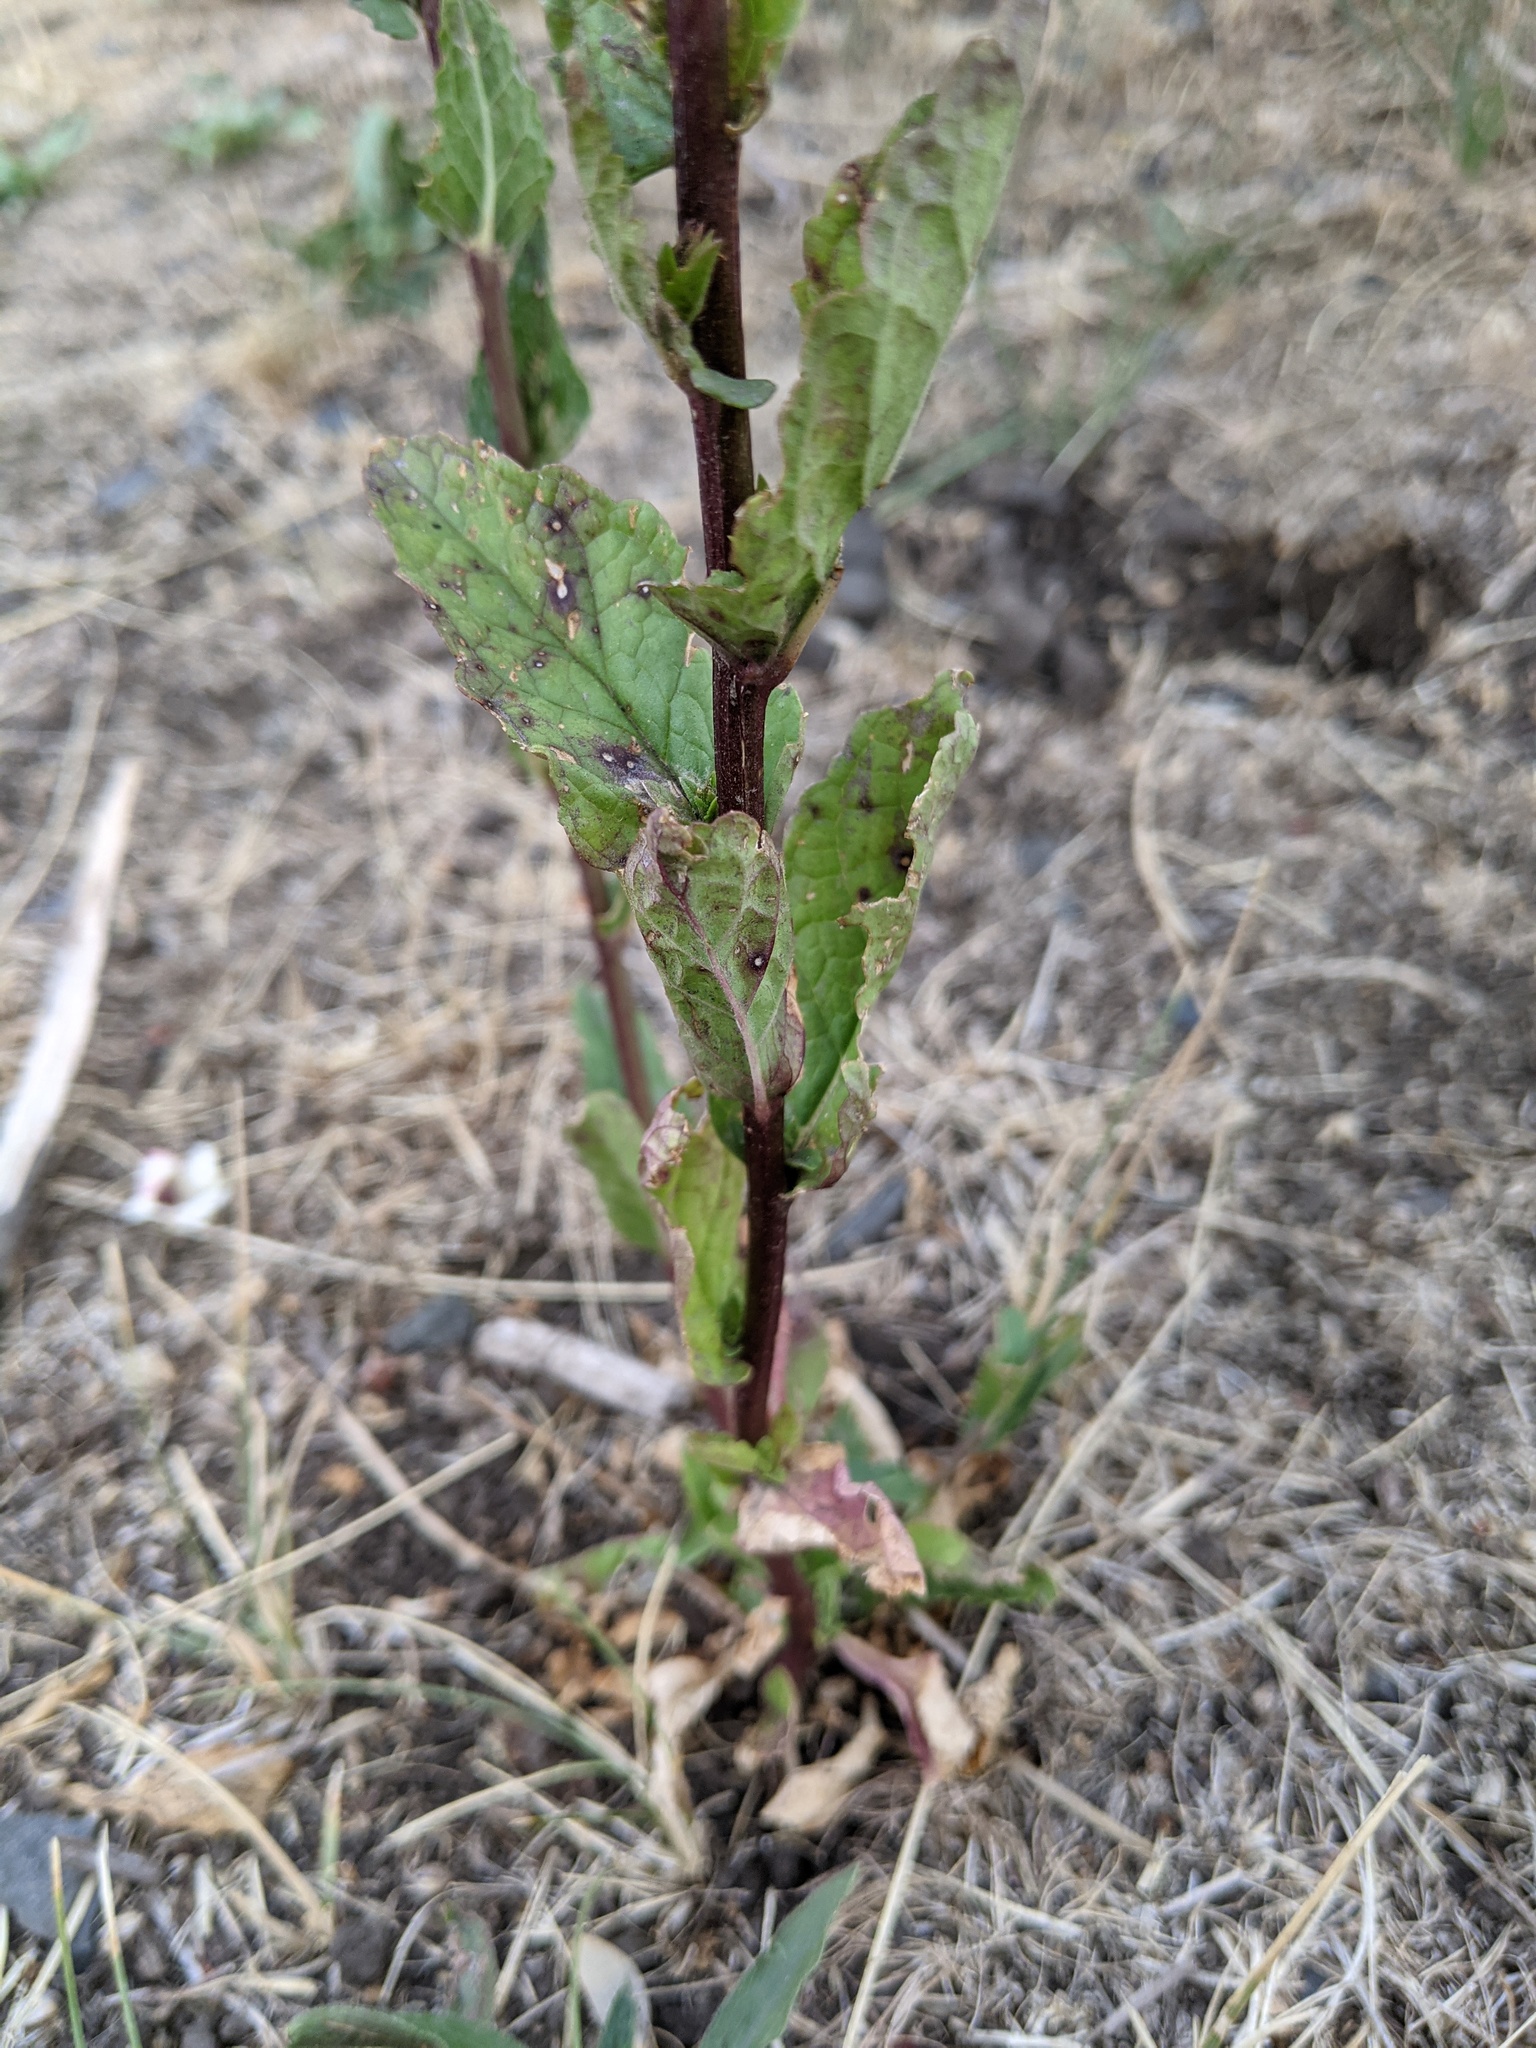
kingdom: Plantae
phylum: Tracheophyta
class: Magnoliopsida
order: Lamiales
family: Scrophulariaceae
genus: Verbascum
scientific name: Verbascum blattaria
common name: Moth mullein
